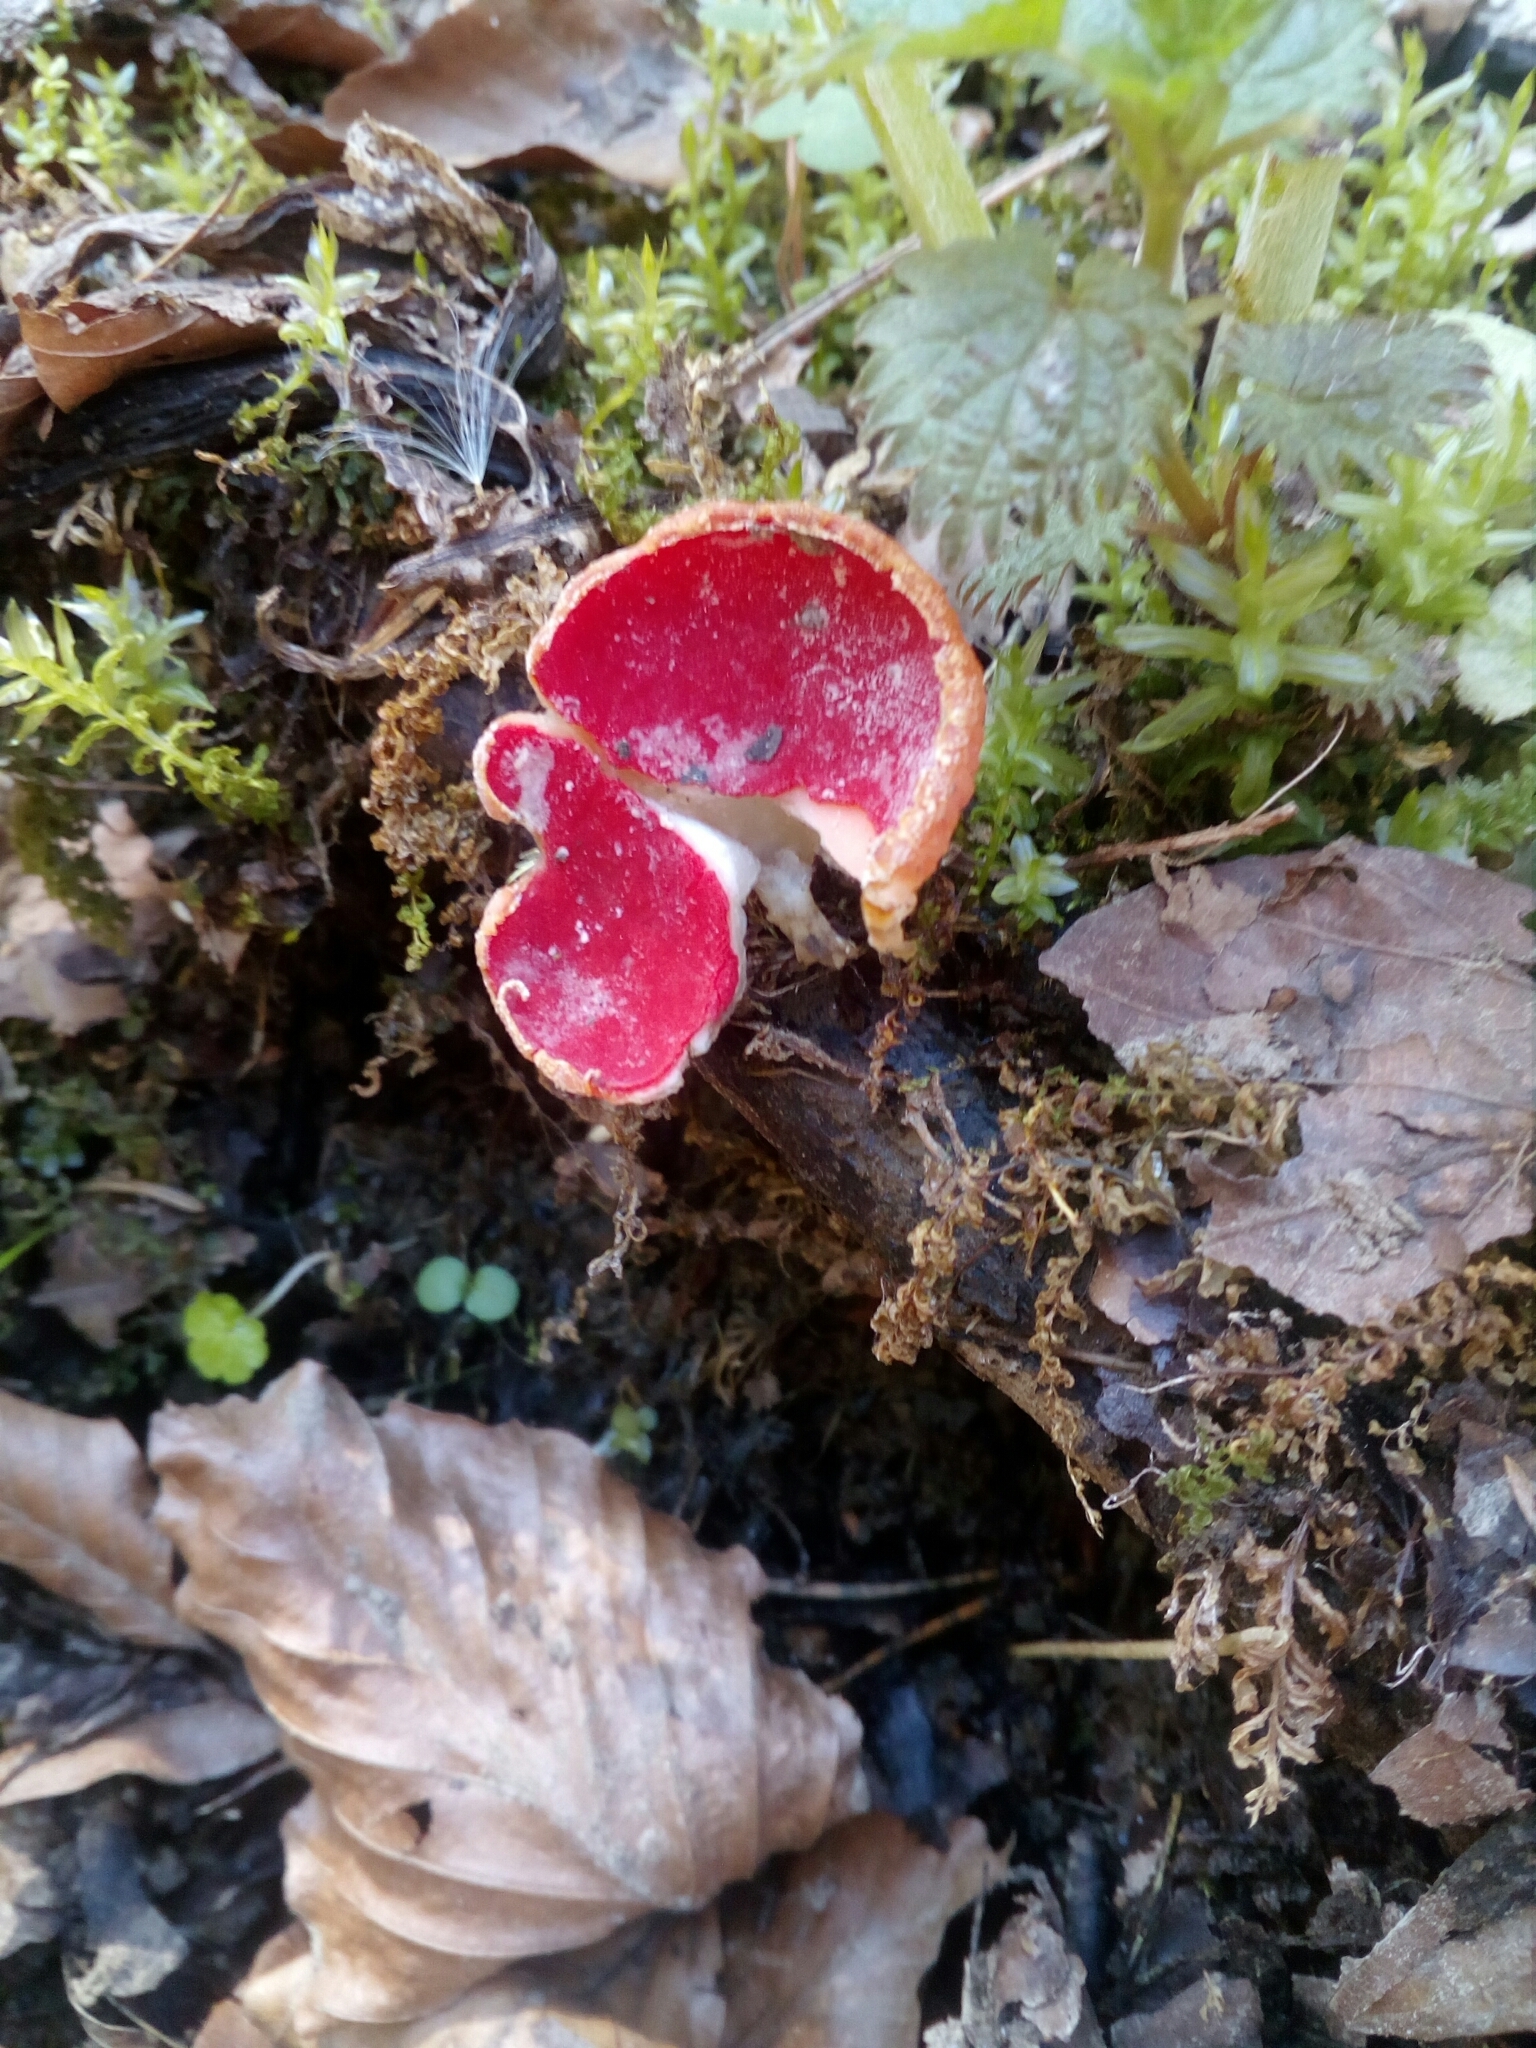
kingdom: Fungi
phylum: Ascomycota
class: Pezizomycetes
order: Pezizales
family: Sarcoscyphaceae
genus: Sarcoscypha
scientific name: Sarcoscypha
